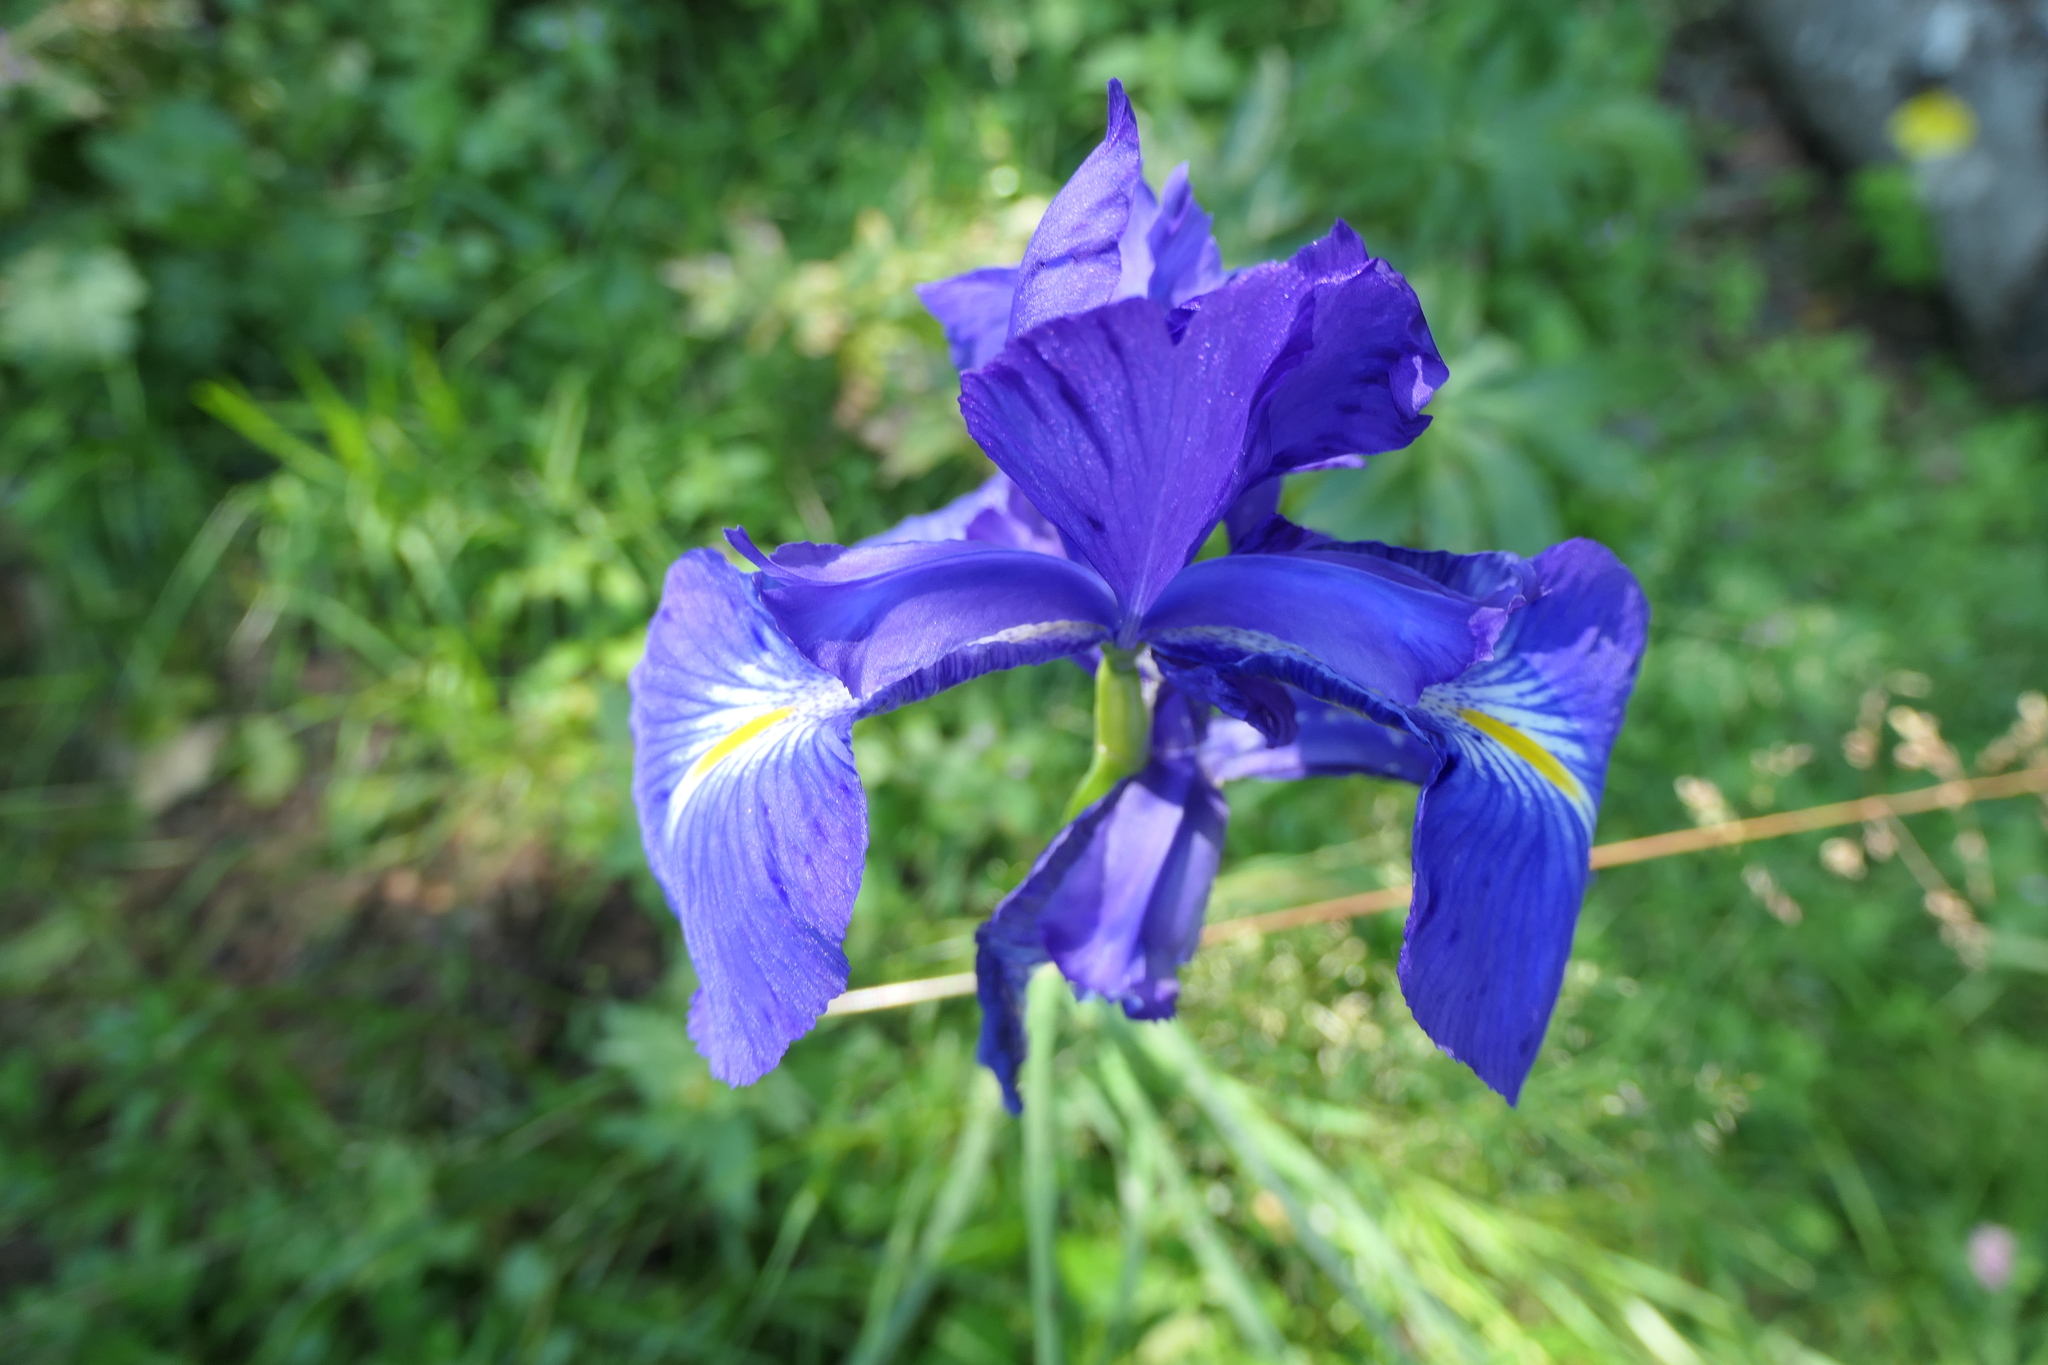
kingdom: Plantae
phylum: Tracheophyta
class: Liliopsida
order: Asparagales
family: Iridaceae
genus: Iris
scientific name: Iris
